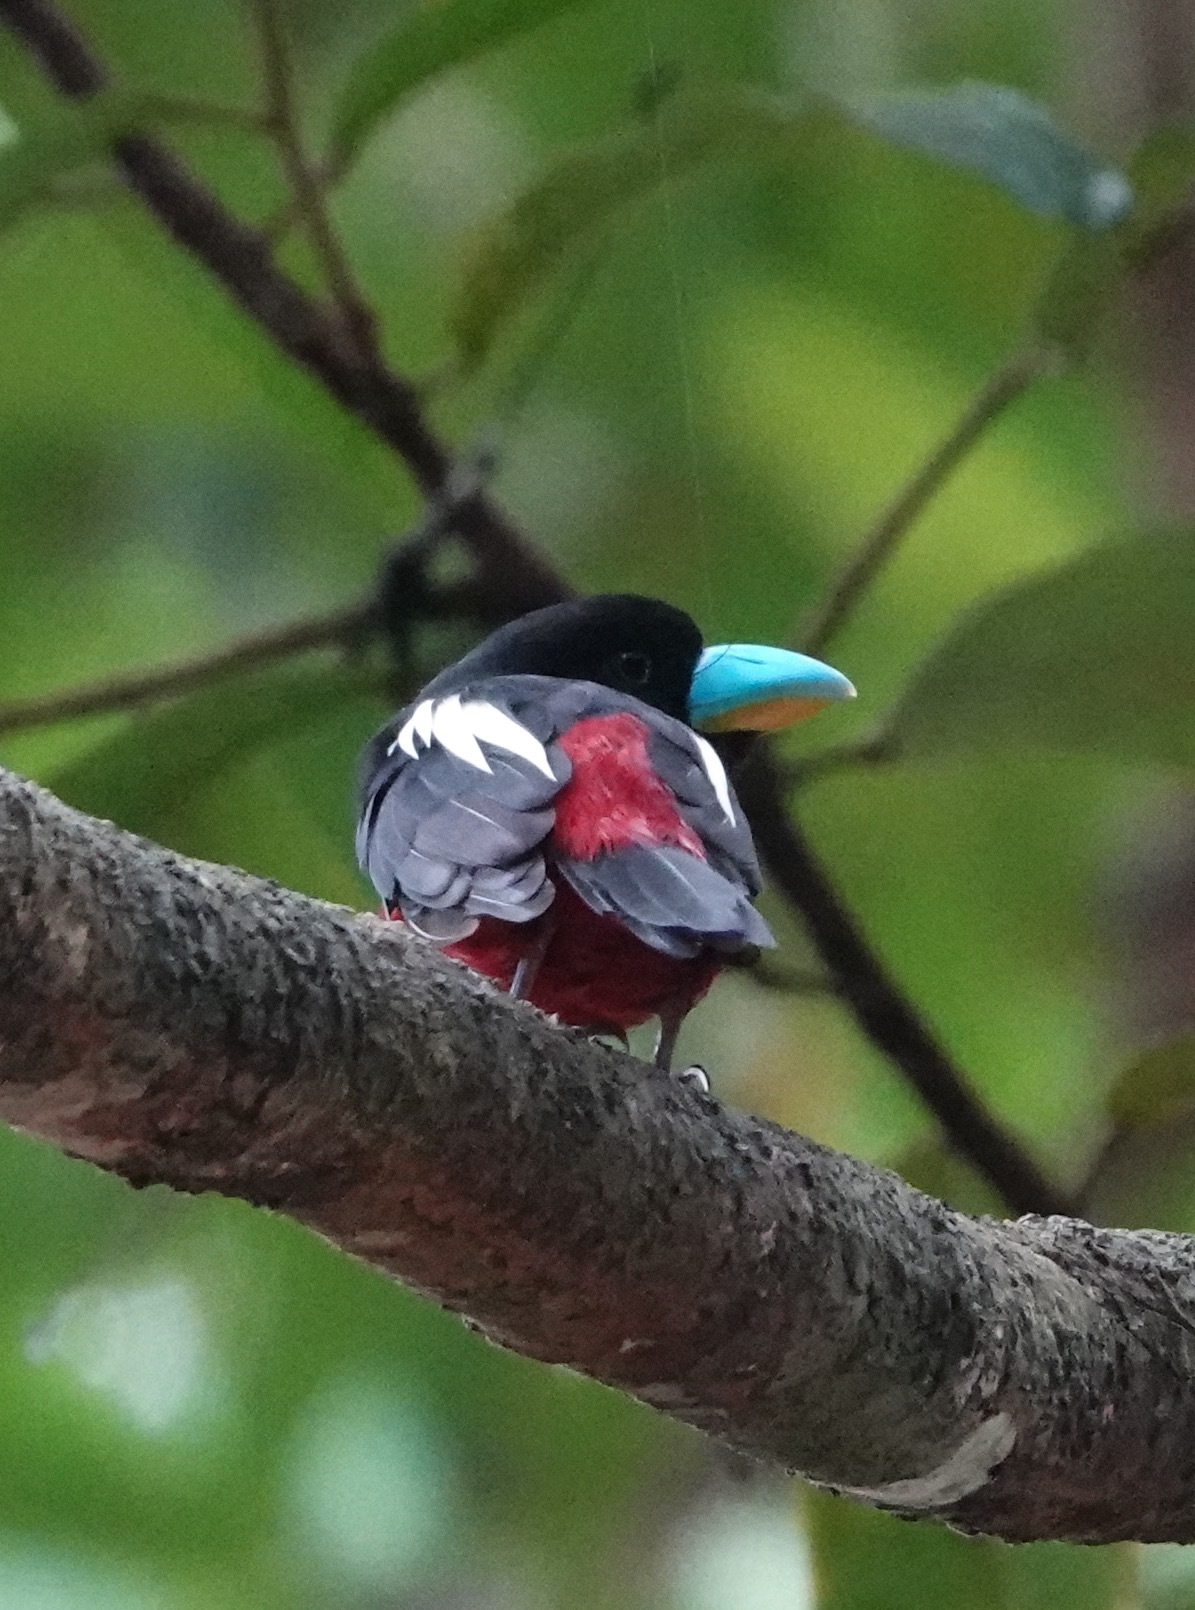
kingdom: Animalia
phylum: Chordata
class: Aves
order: Passeriformes
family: Eurylaimidae
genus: Cymbirhynchus
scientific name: Cymbirhynchus macrorhynchos
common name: Black-and-red broadbill
